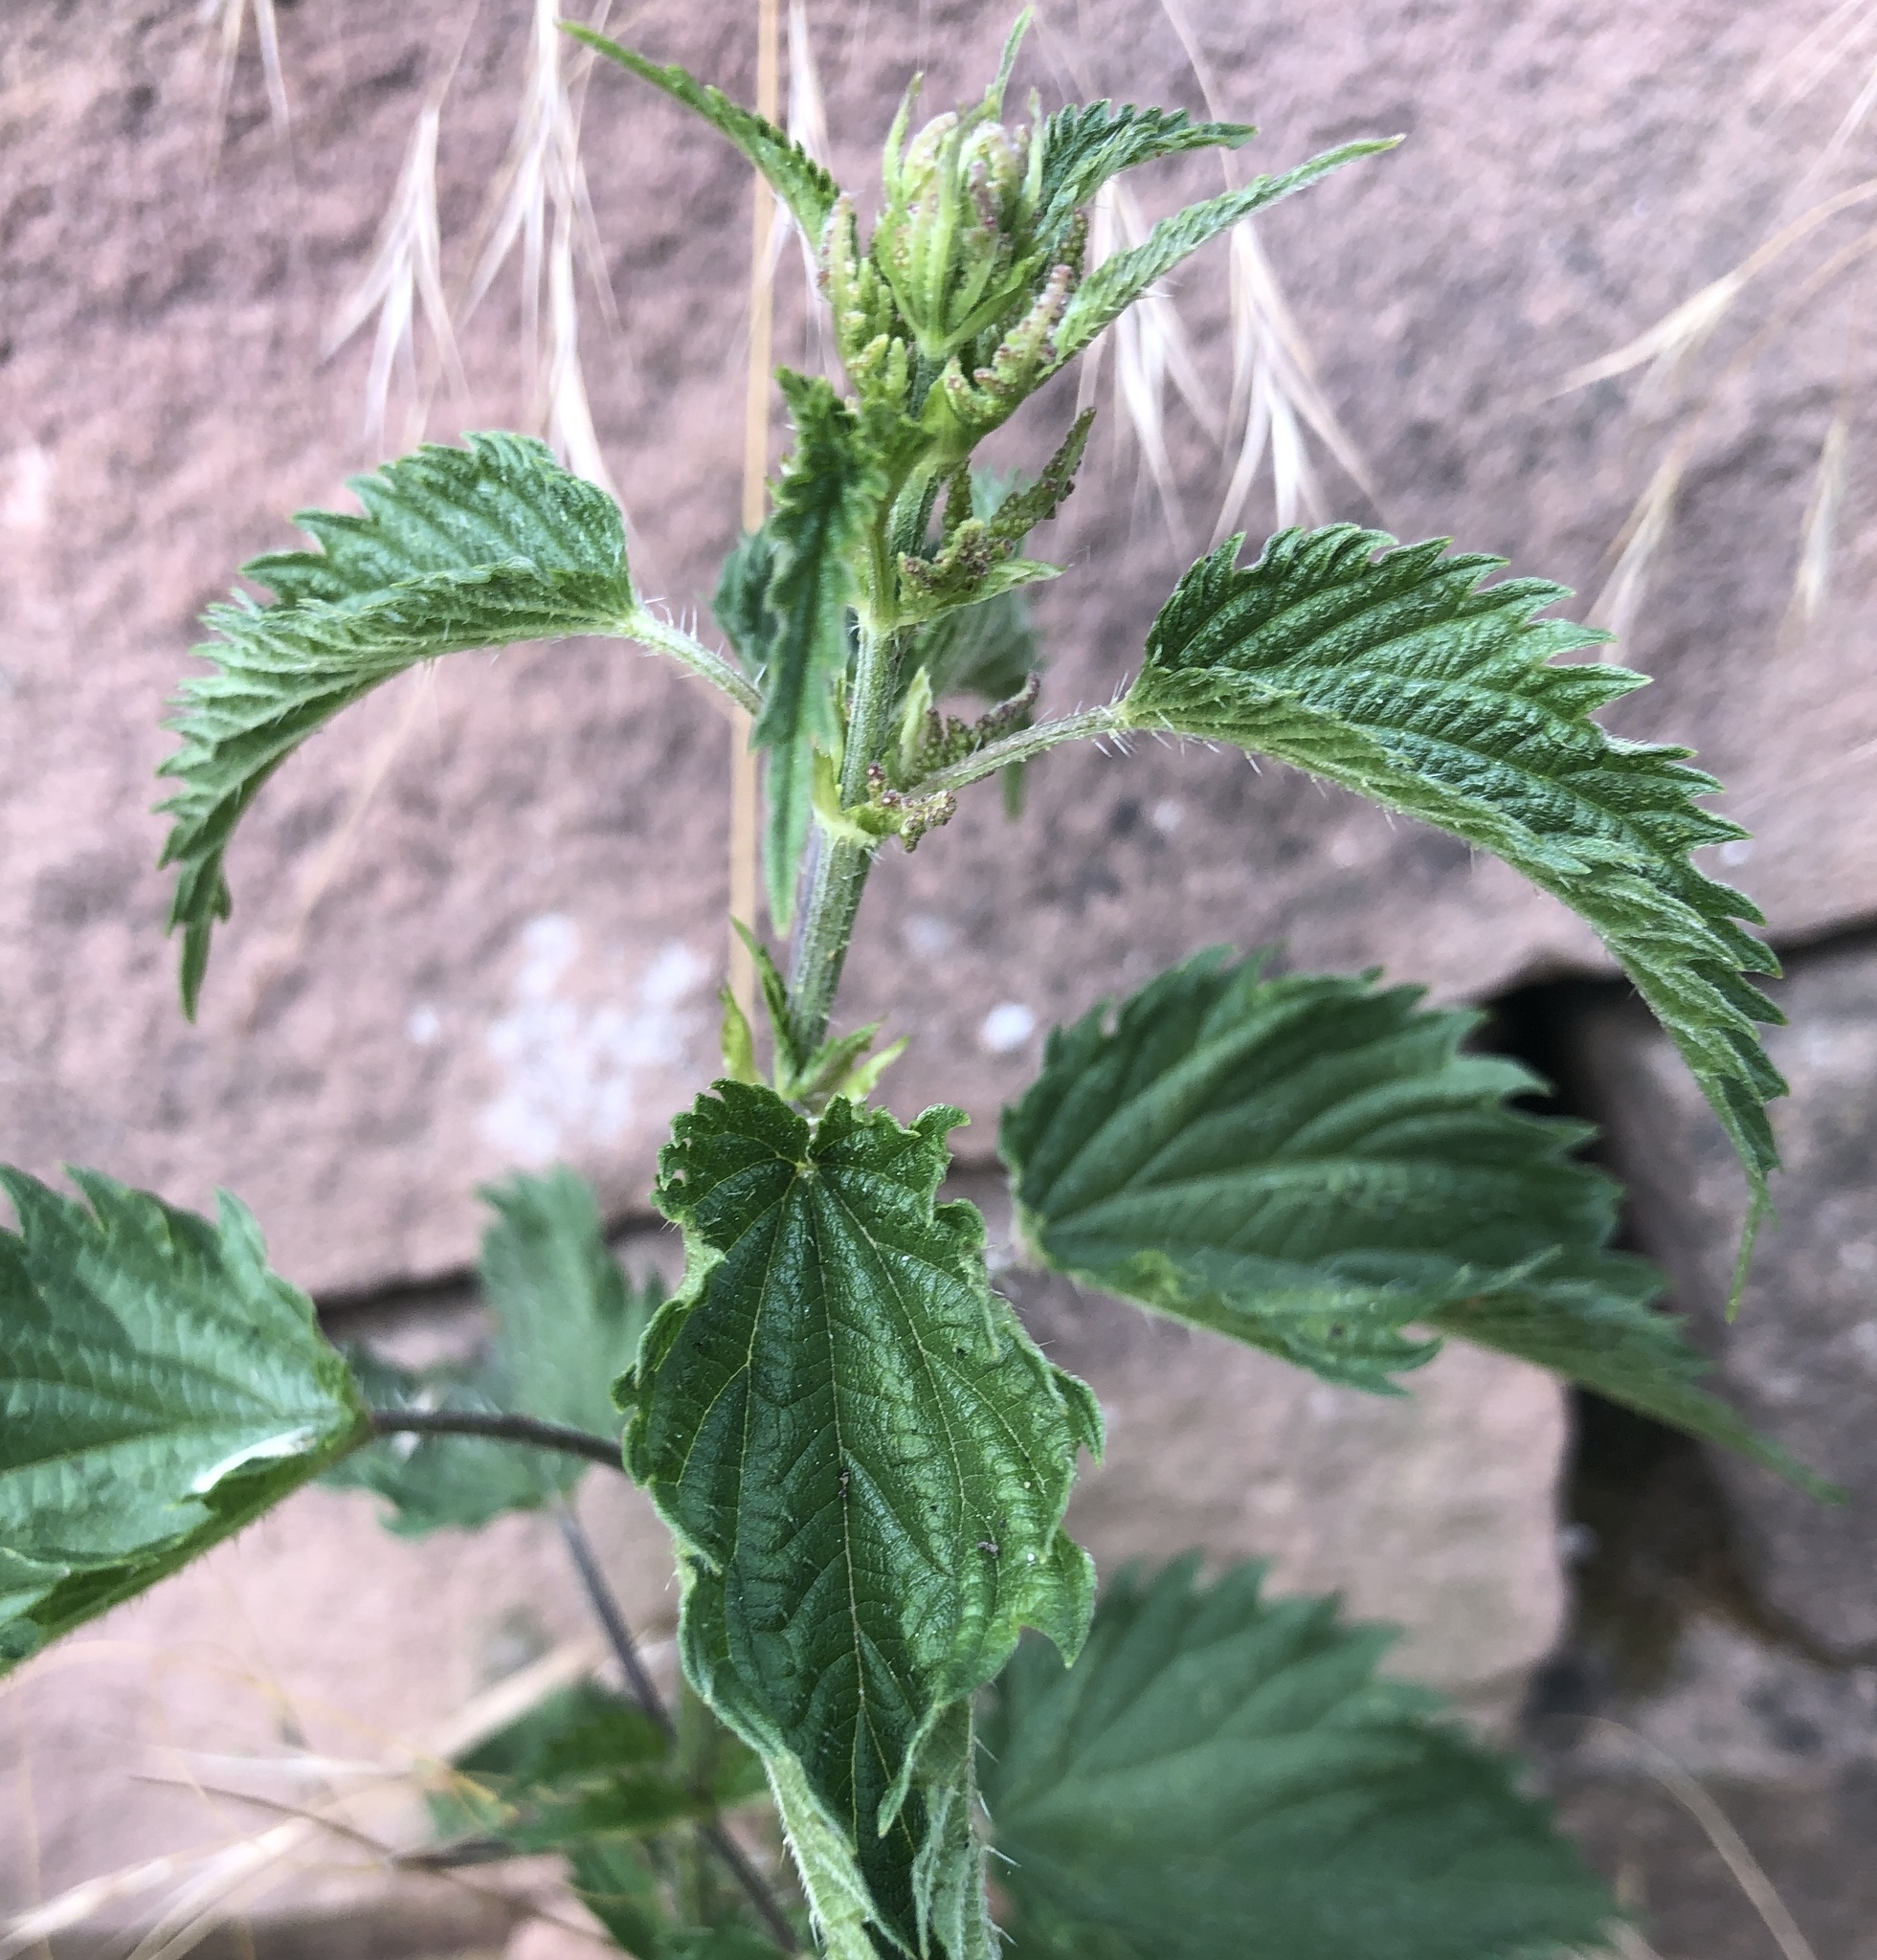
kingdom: Plantae
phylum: Tracheophyta
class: Magnoliopsida
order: Rosales
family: Urticaceae
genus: Urtica
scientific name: Urtica dioica
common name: Common nettle
